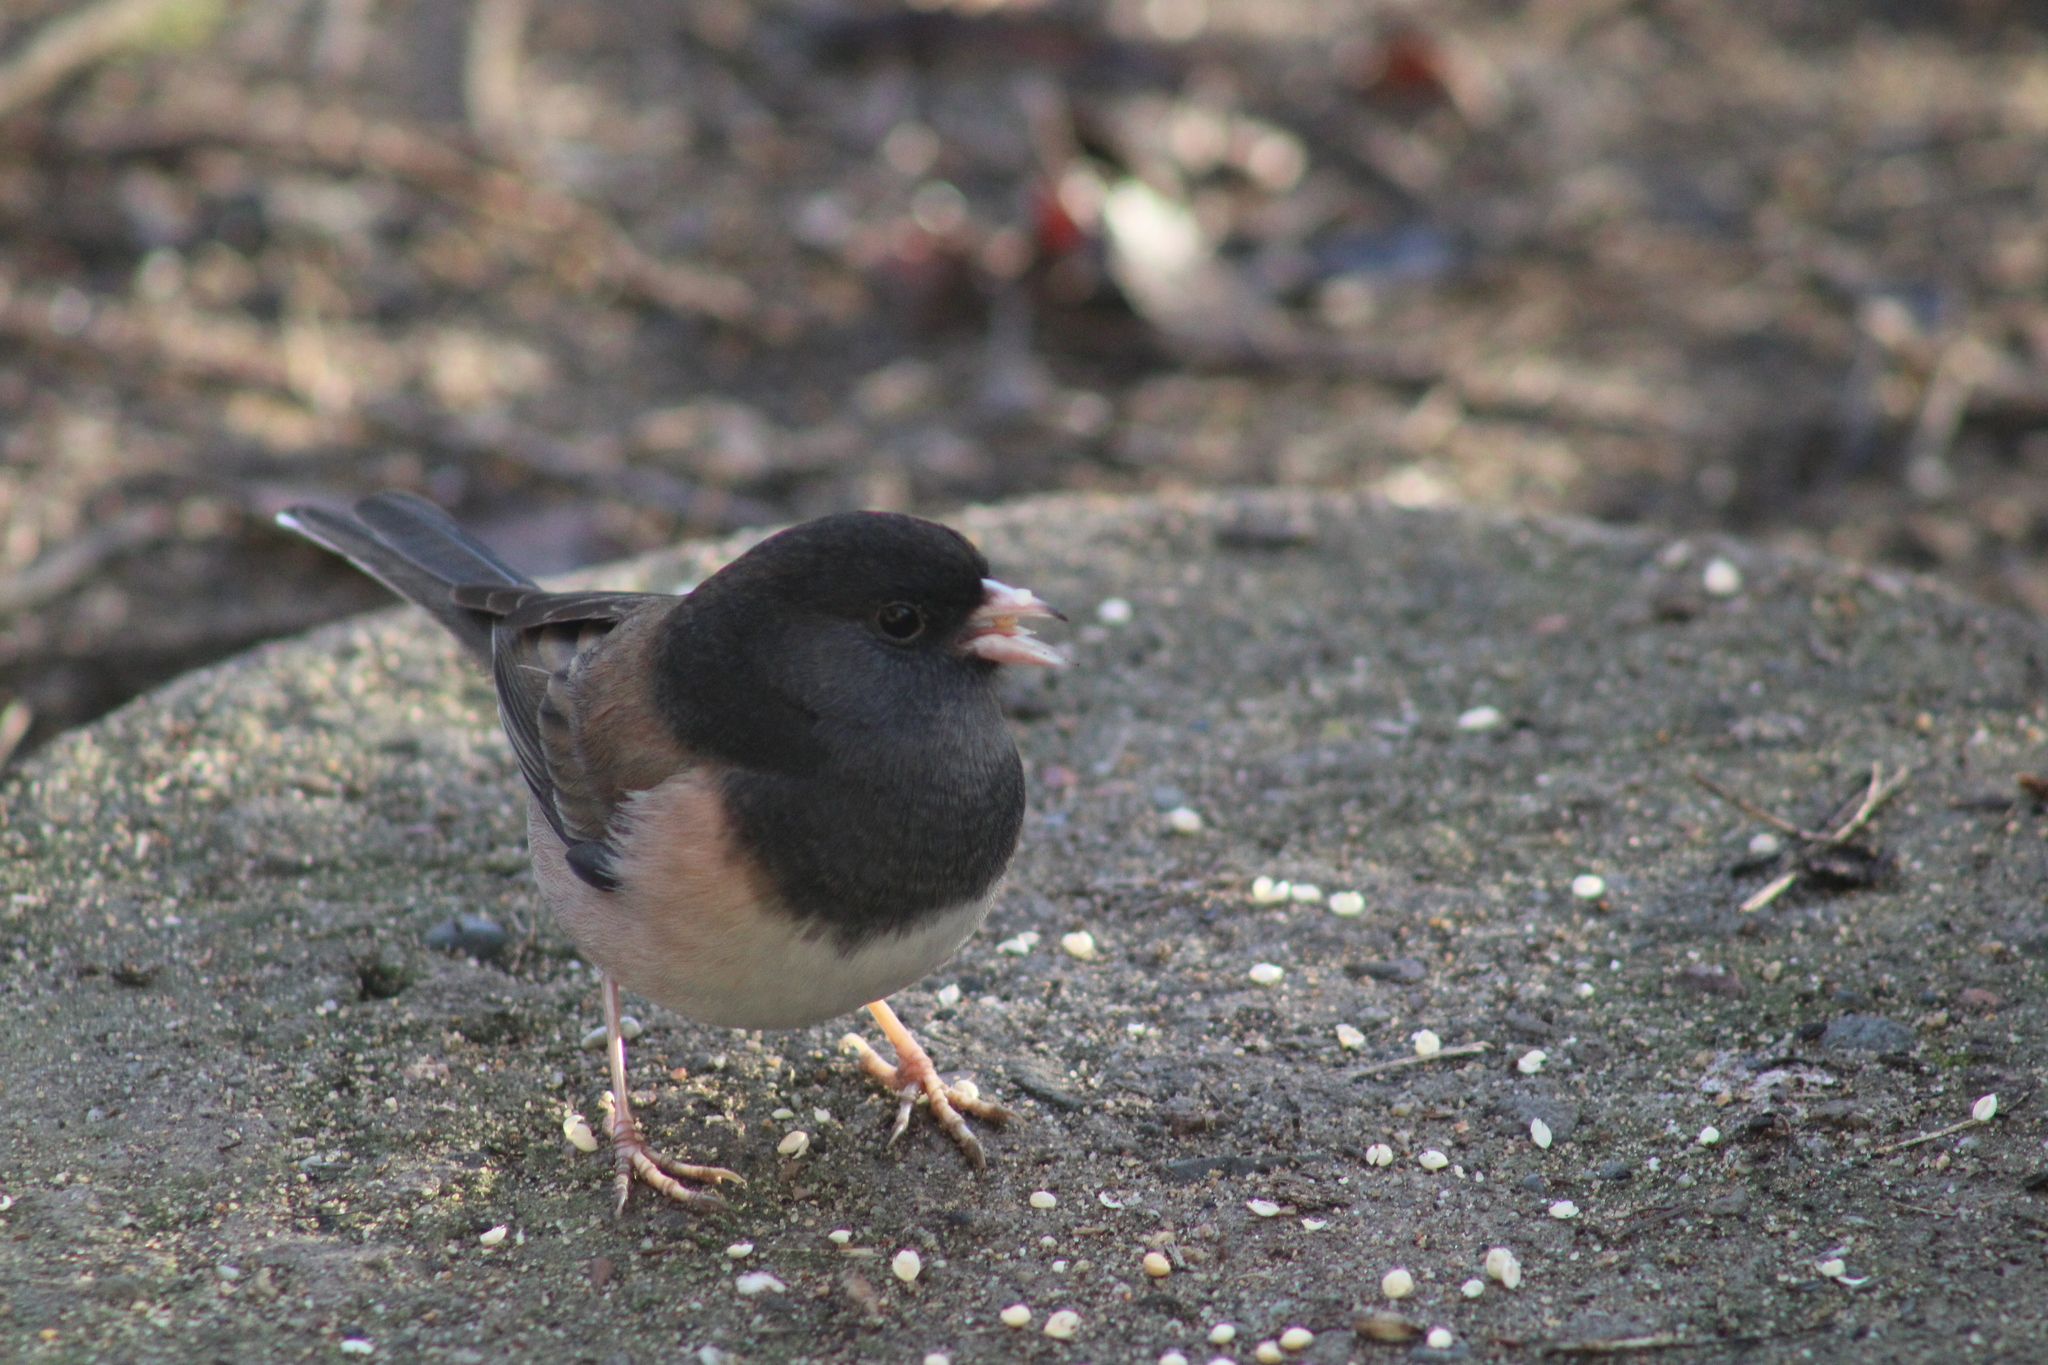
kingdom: Animalia
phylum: Chordata
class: Aves
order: Passeriformes
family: Passerellidae
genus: Junco
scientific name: Junco hyemalis
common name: Dark-eyed junco
